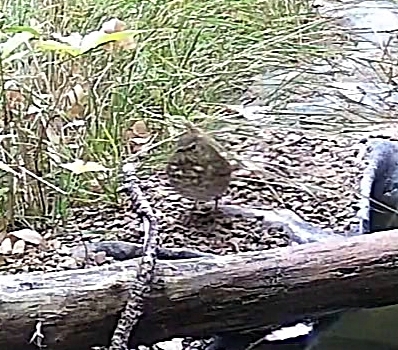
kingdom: Animalia
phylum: Chordata
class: Aves
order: Passeriformes
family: Turdidae
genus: Catharus
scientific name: Catharus ustulatus
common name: Swainson's thrush
